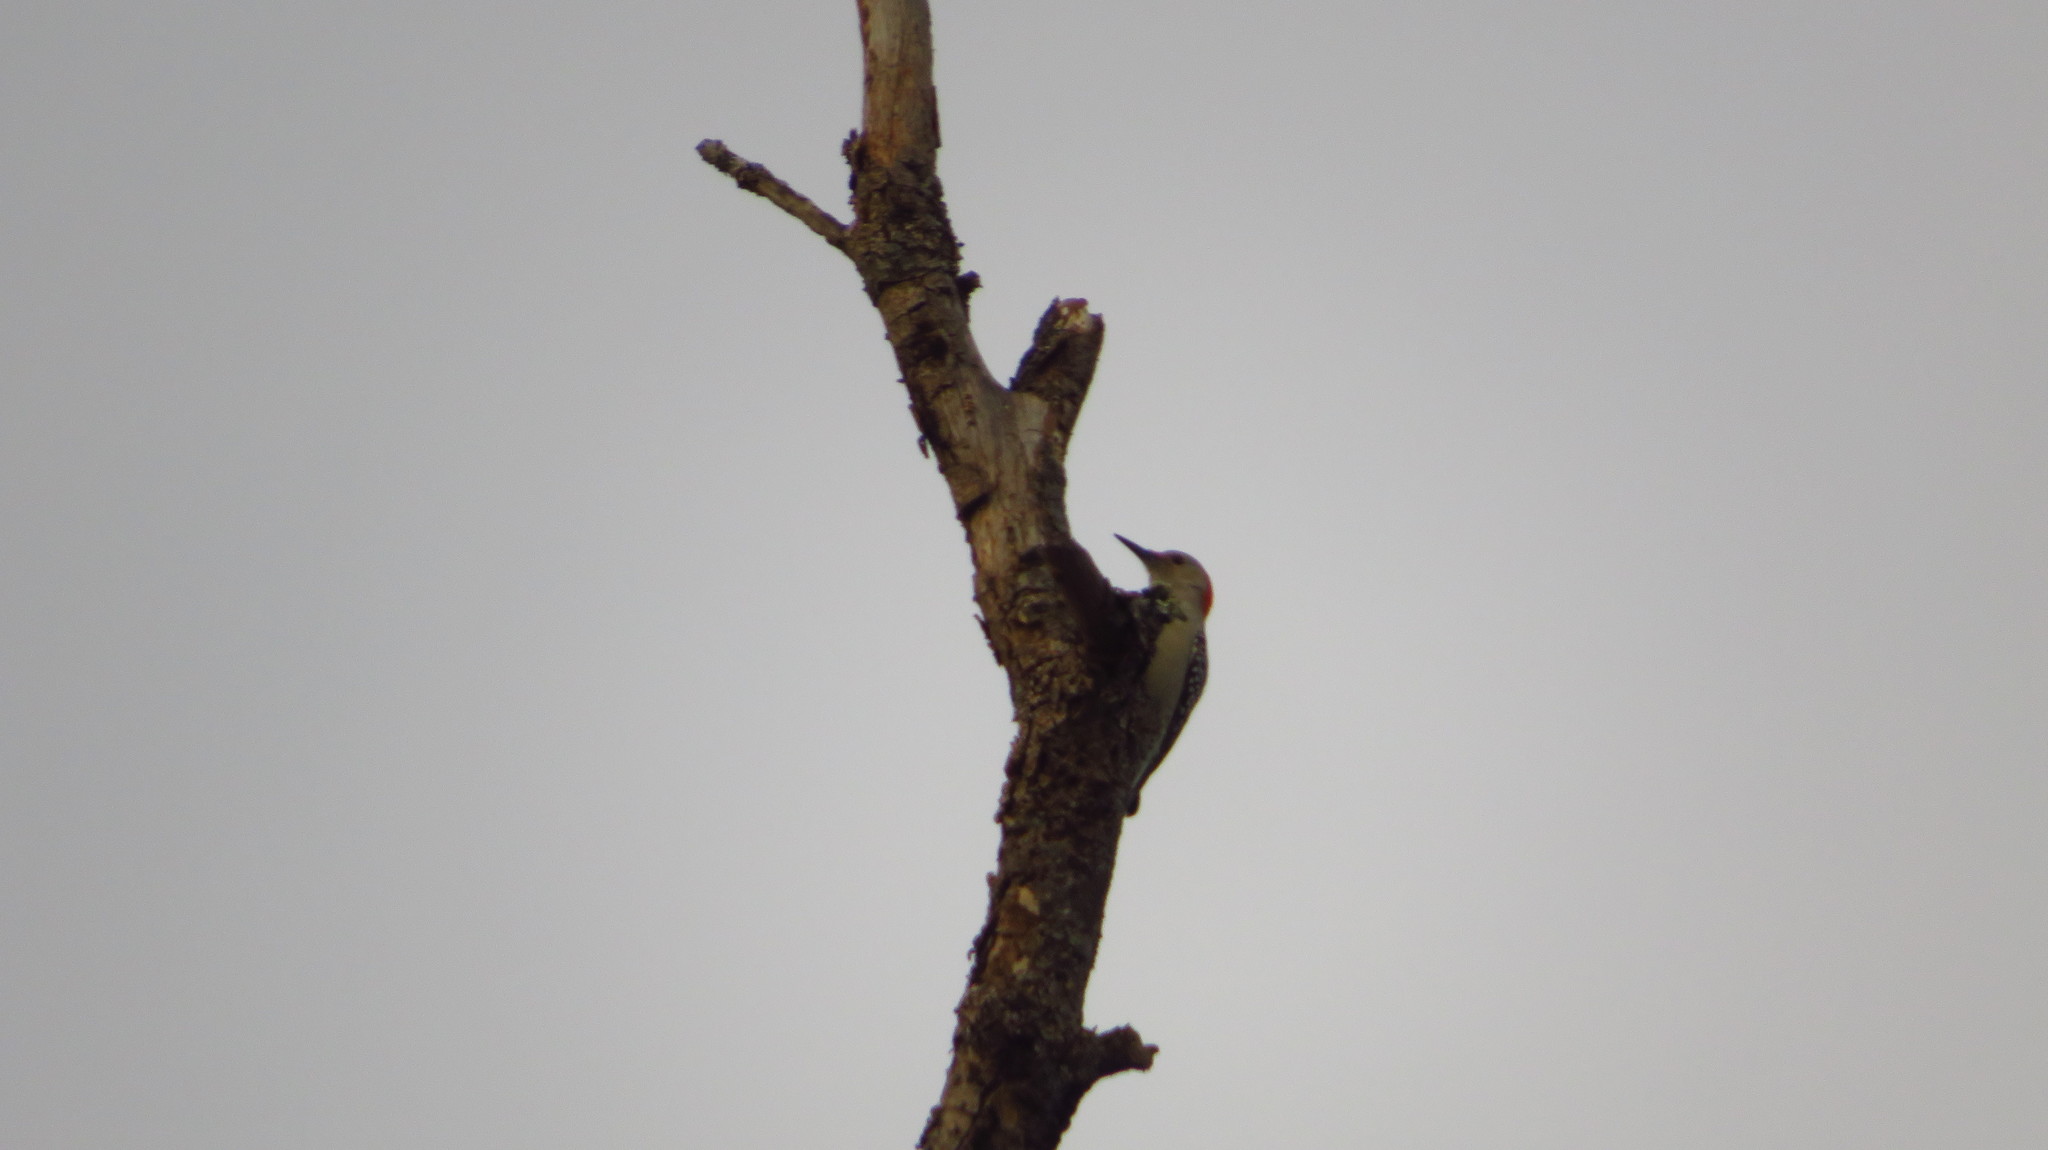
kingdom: Animalia
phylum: Chordata
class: Aves
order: Piciformes
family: Picidae
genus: Melanerpes
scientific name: Melanerpes carolinus
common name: Red-bellied woodpecker
